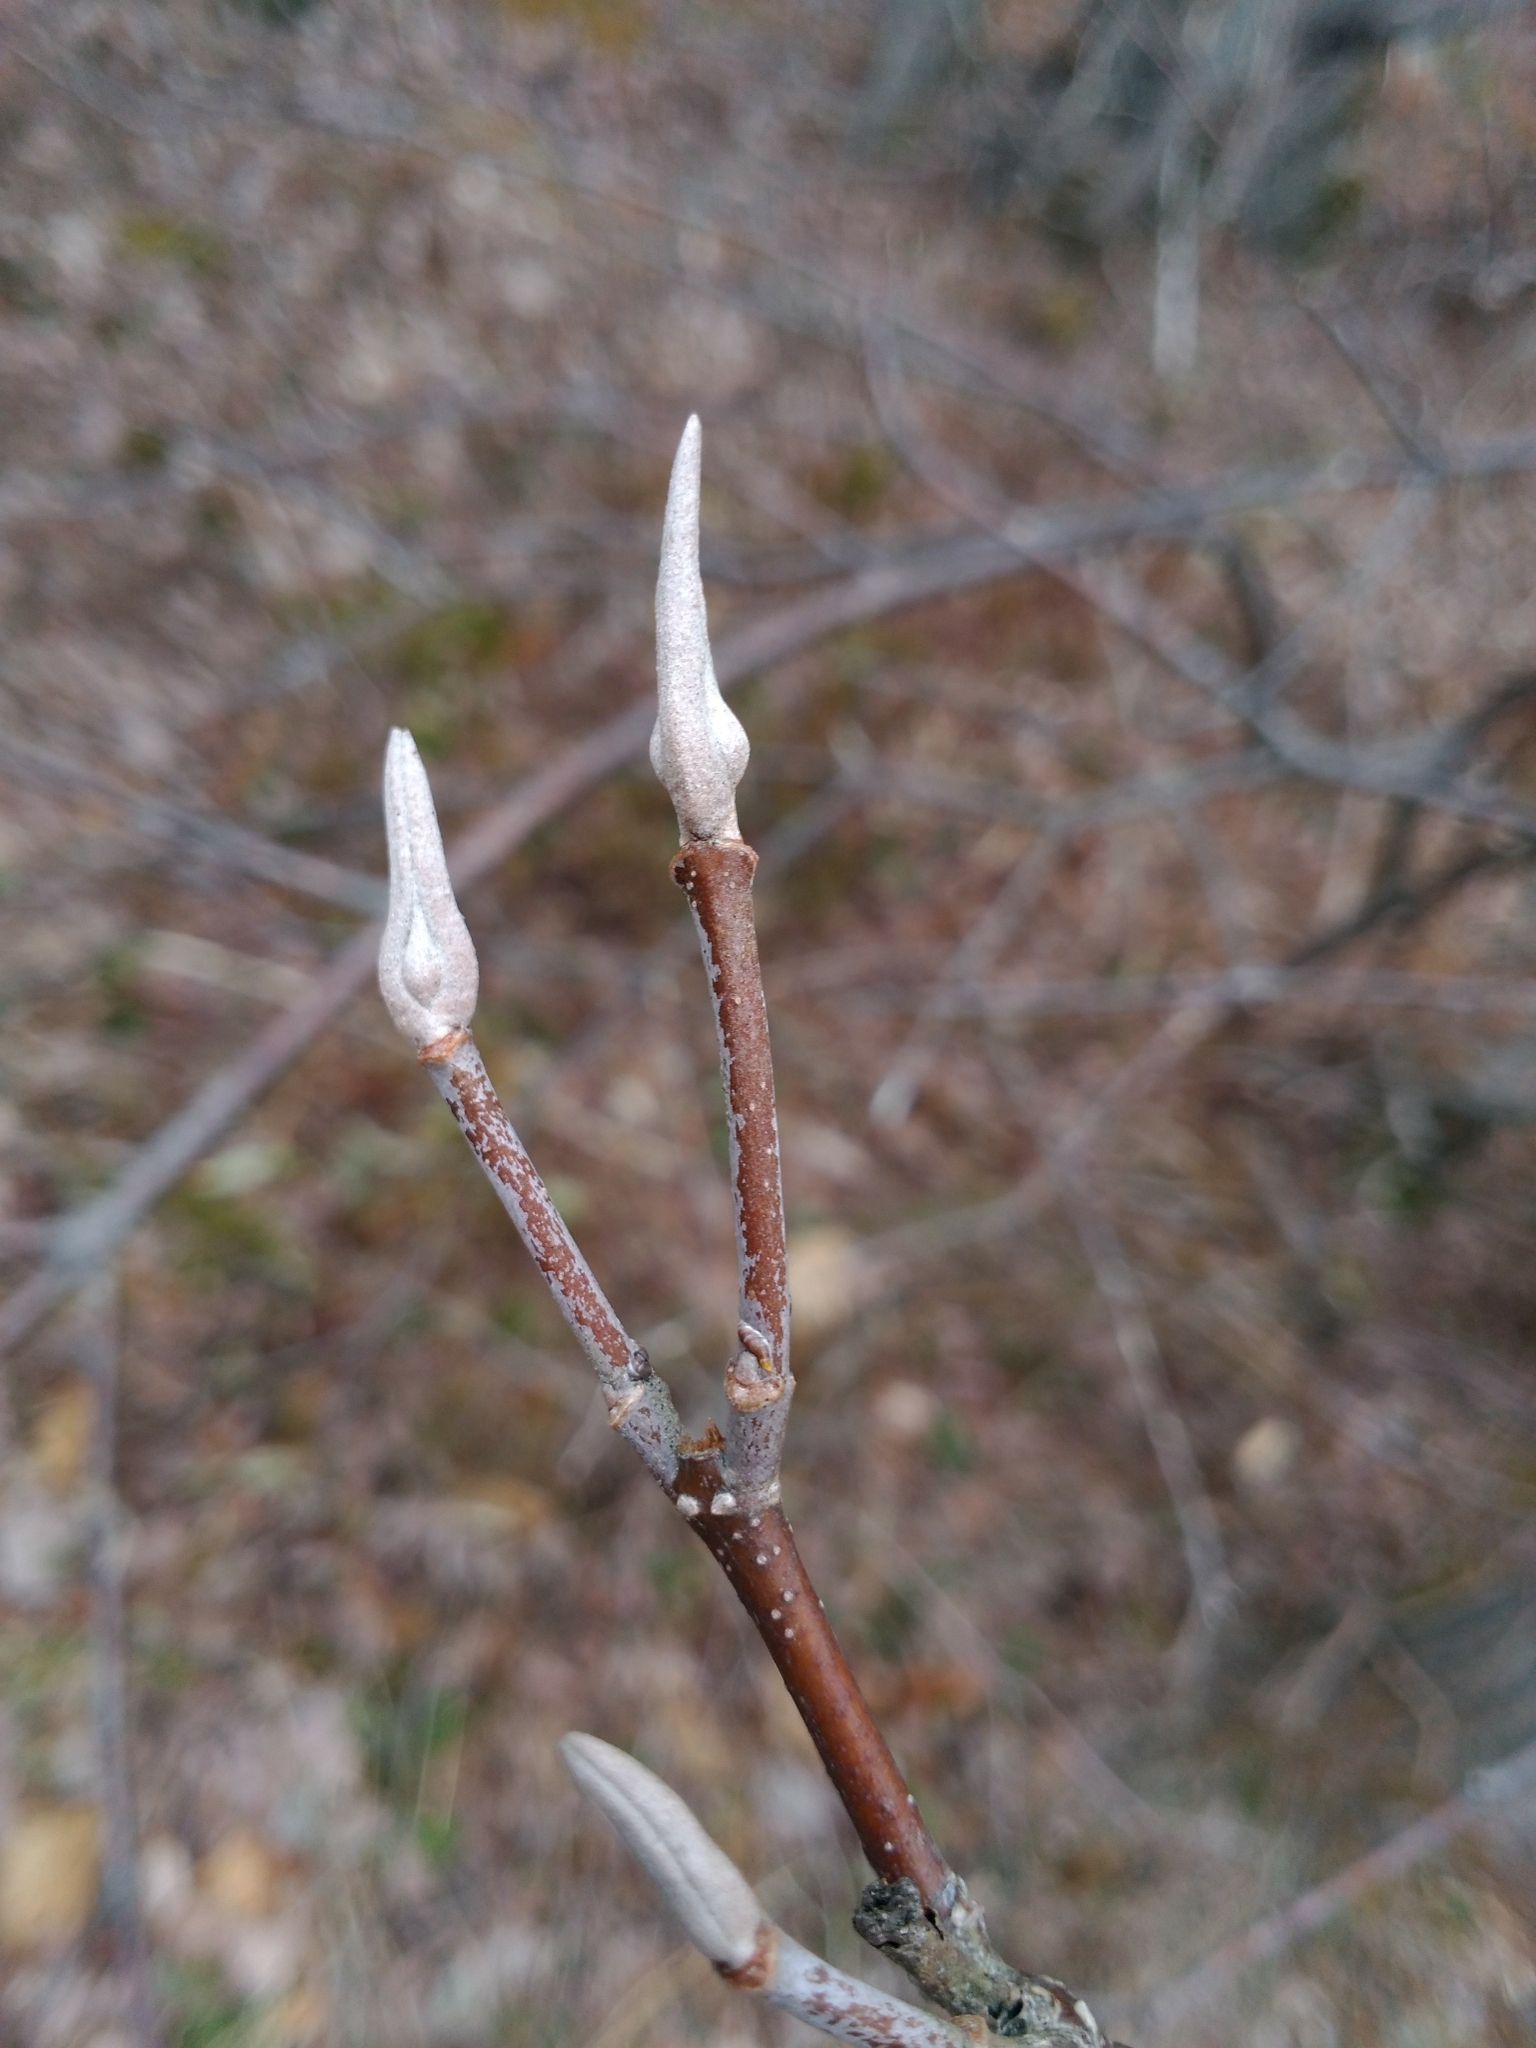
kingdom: Plantae
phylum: Tracheophyta
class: Magnoliopsida
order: Dipsacales
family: Viburnaceae
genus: Viburnum
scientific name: Viburnum cassinoides
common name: Swamp haw
